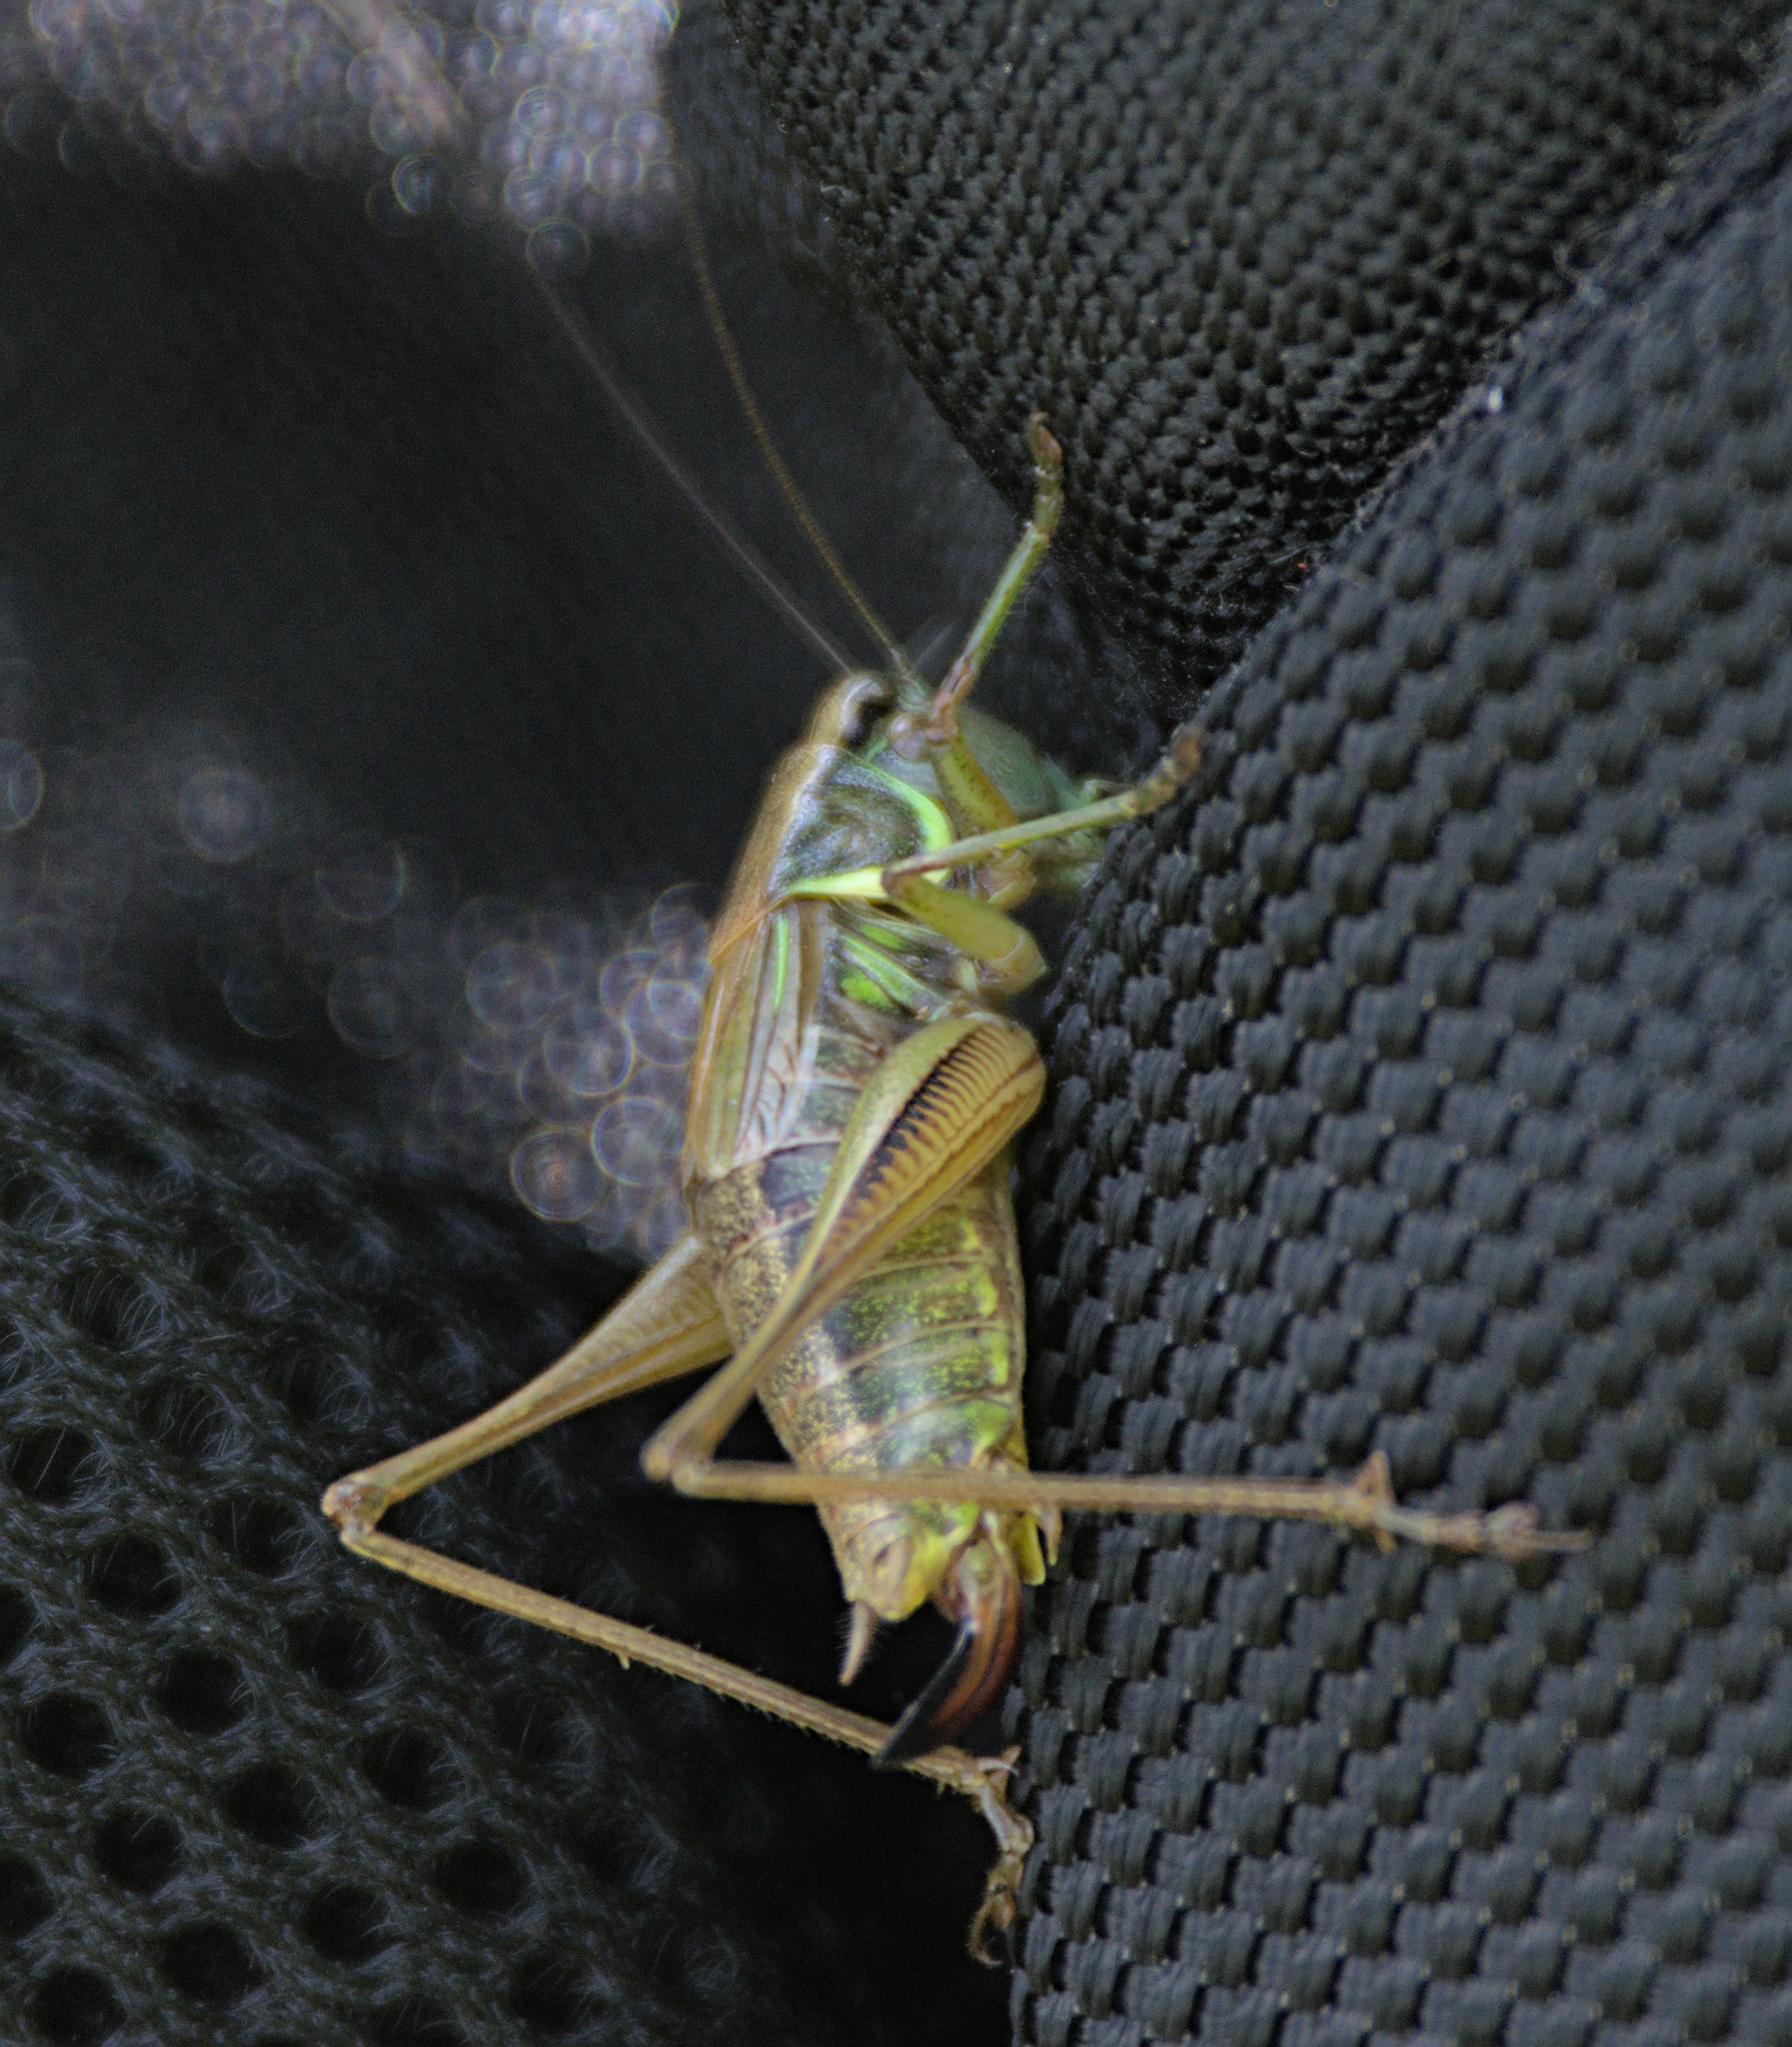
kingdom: Animalia
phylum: Arthropoda
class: Insecta
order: Orthoptera
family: Tettigoniidae
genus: Roeseliana
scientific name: Roeseliana roeselii
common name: Roesel's bush cricket
